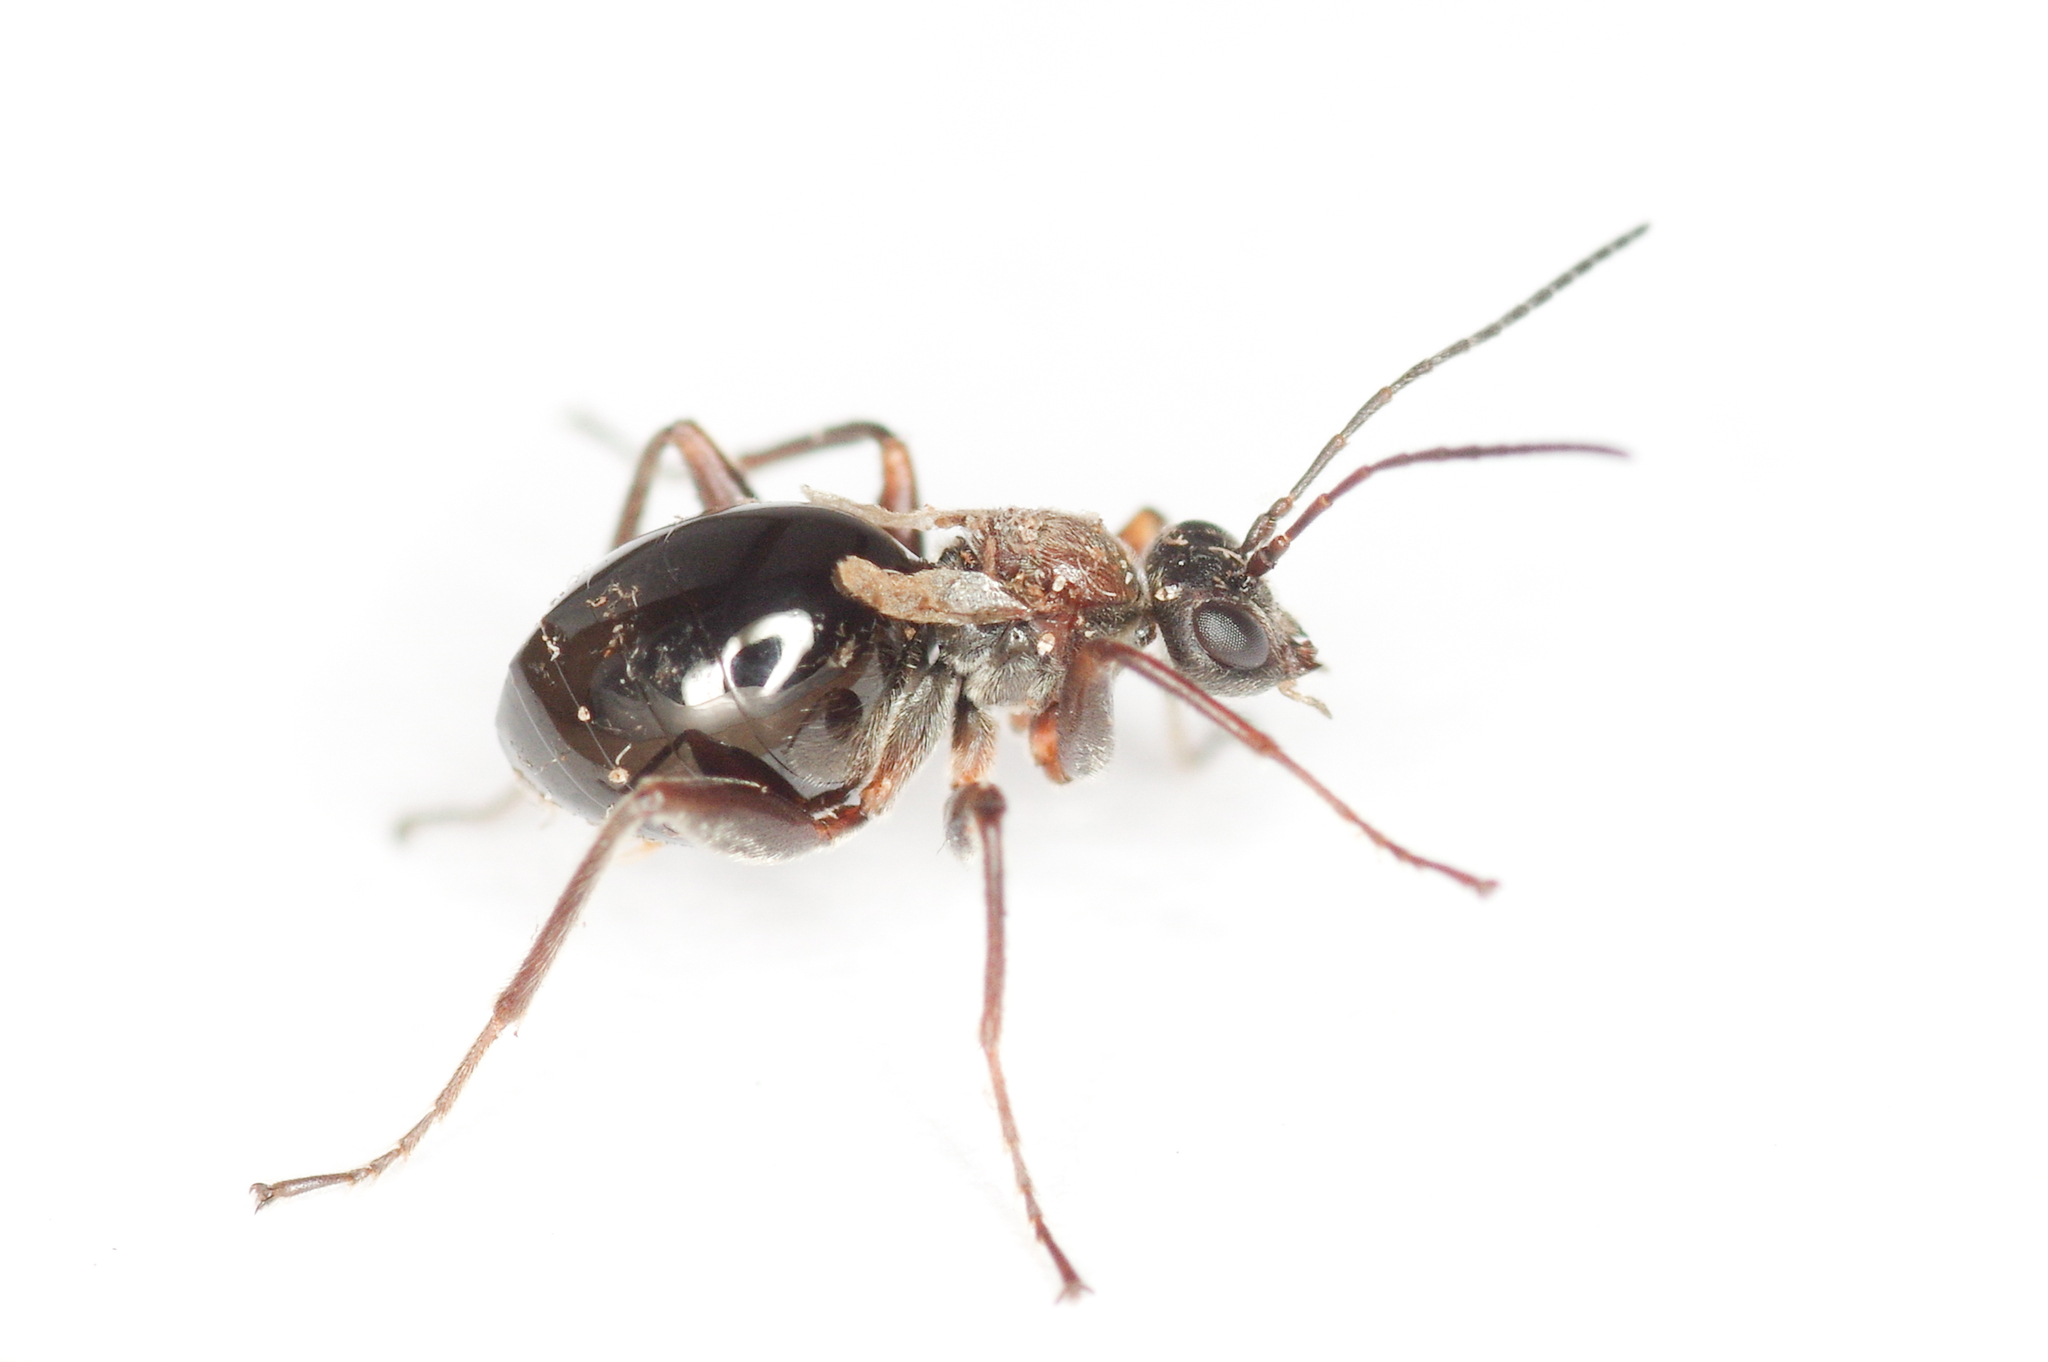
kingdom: Animalia
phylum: Arthropoda
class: Insecta
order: Hymenoptera
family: Cynipidae
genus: Philonix
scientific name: Philonix fulvicollis
